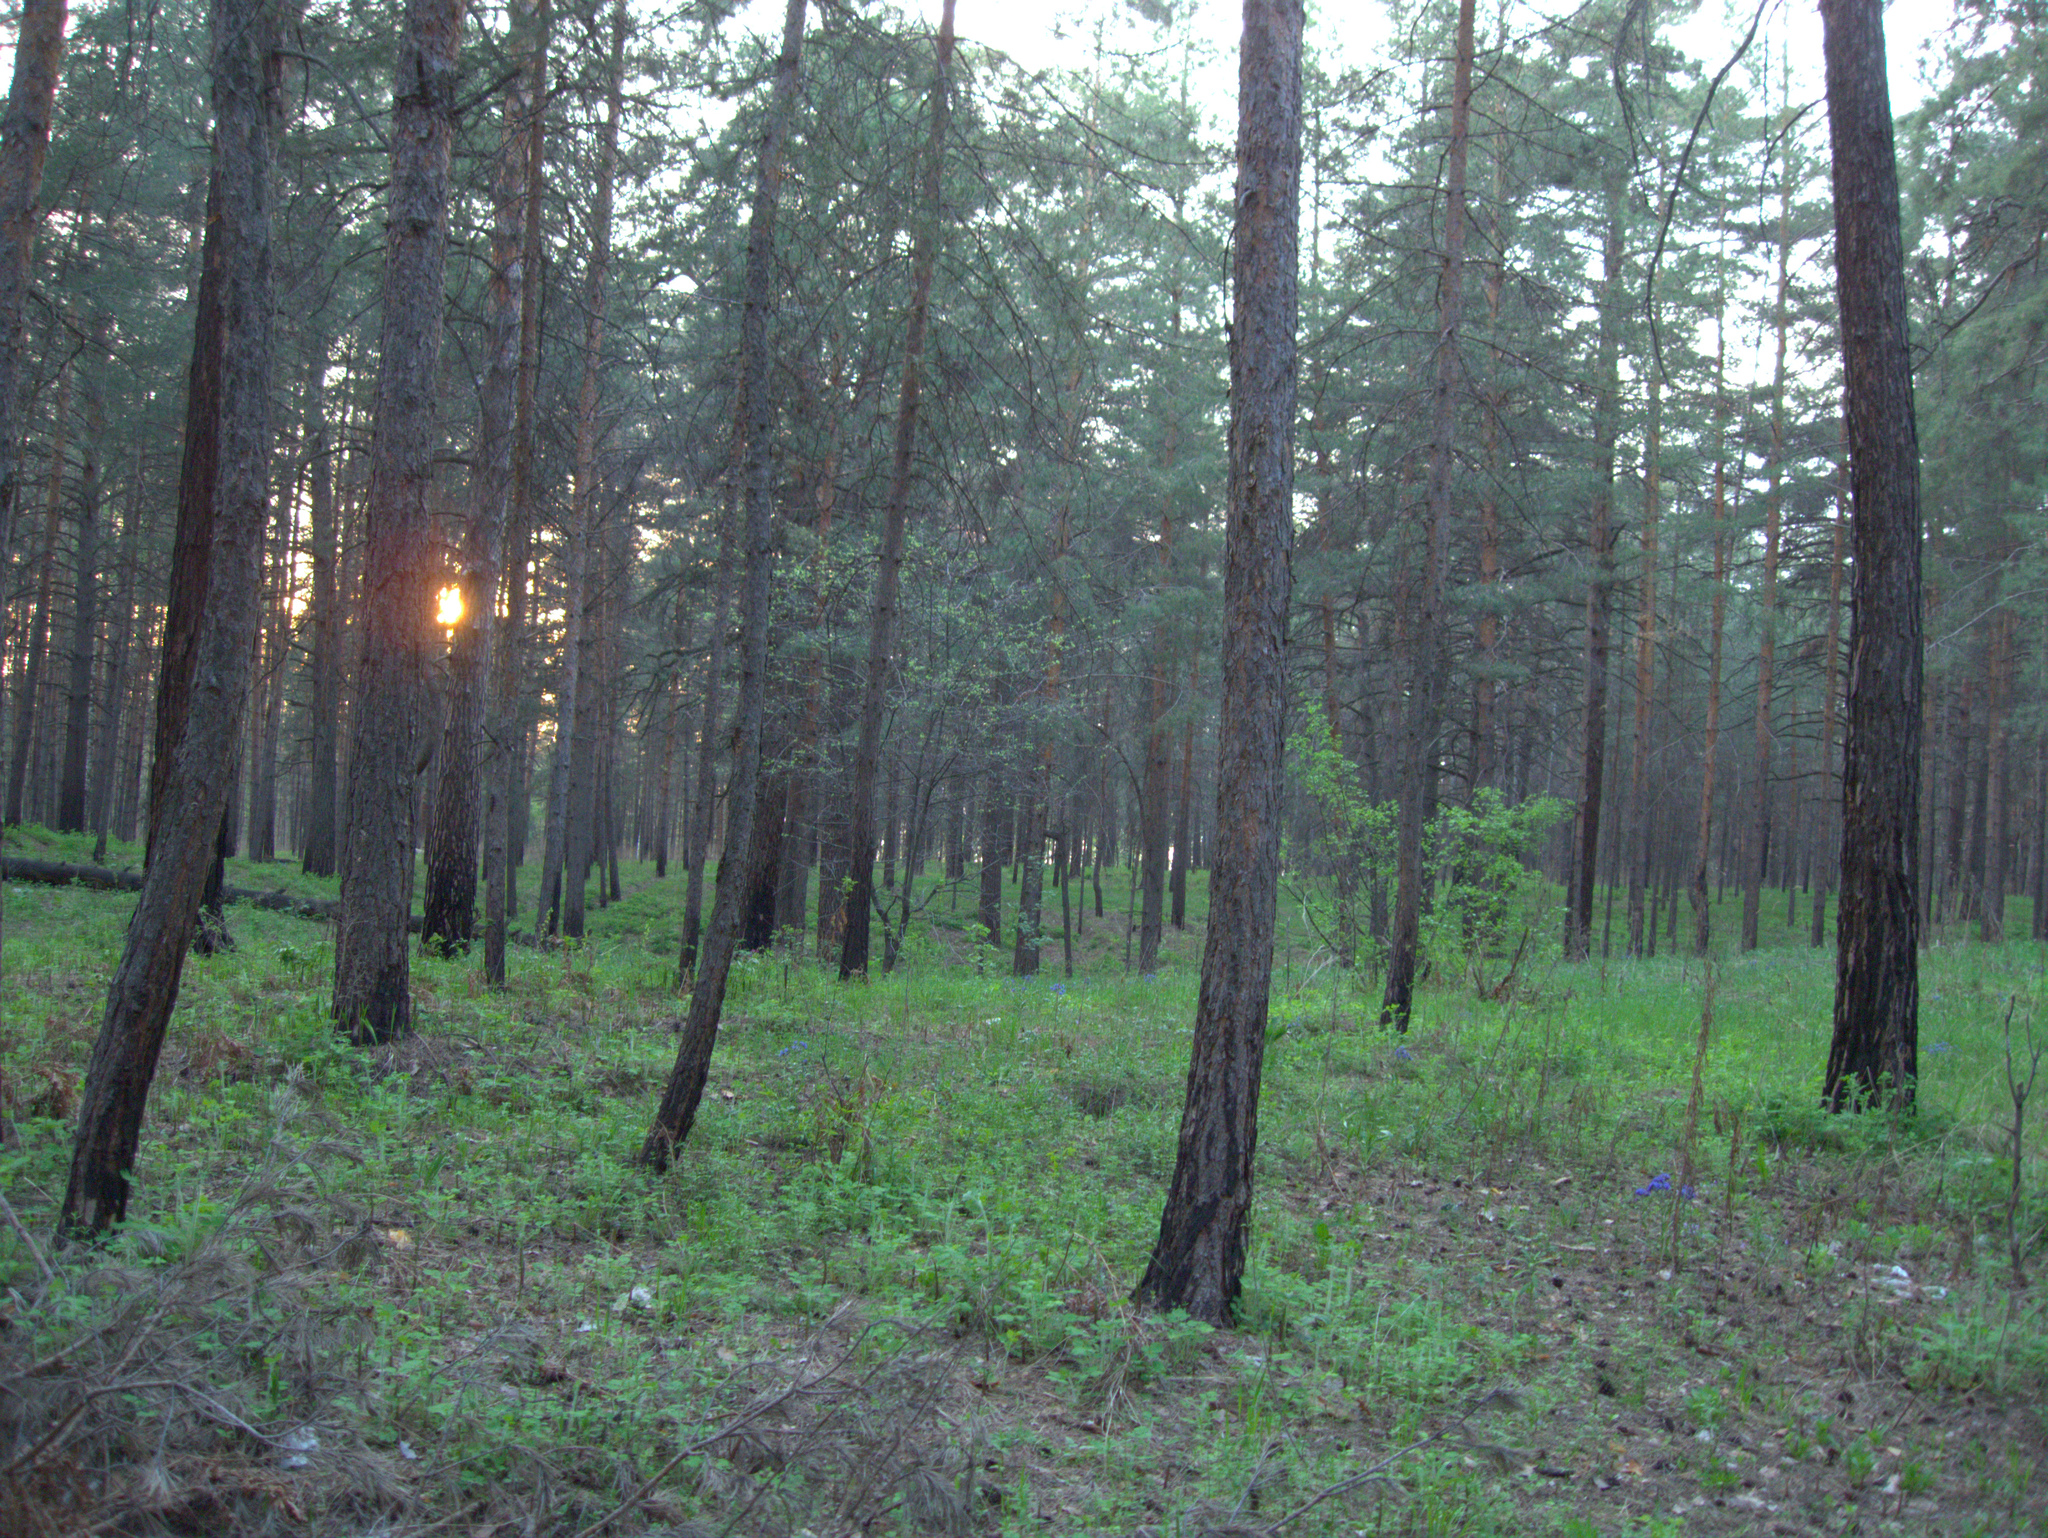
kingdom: Plantae
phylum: Tracheophyta
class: Pinopsida
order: Pinales
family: Pinaceae
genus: Pinus
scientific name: Pinus sylvestris
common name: Scots pine
